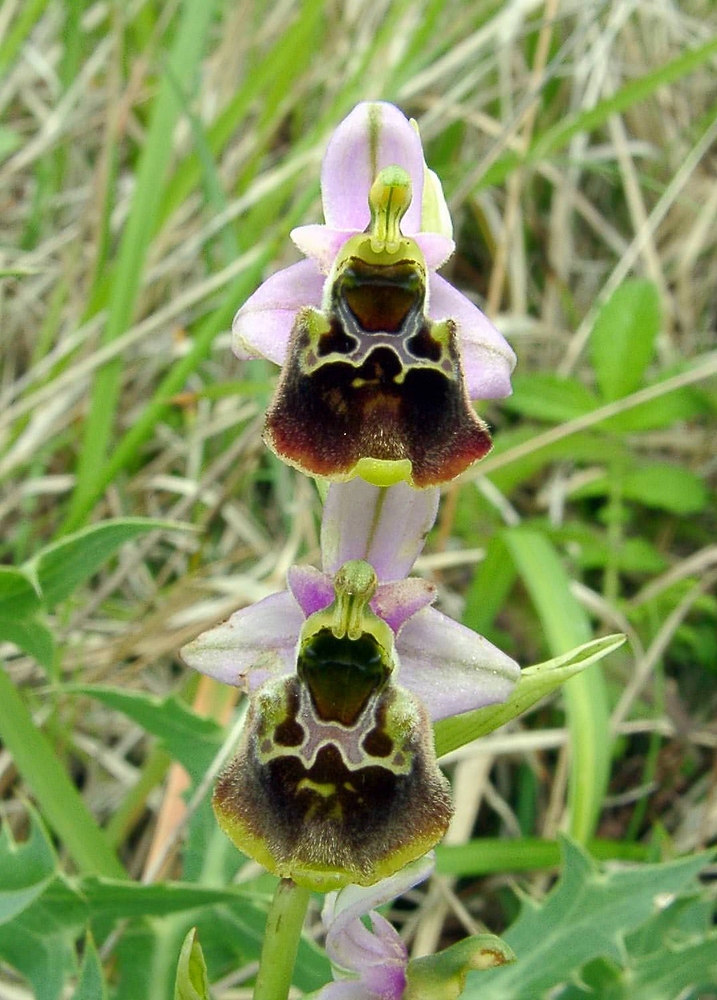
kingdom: Plantae
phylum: Tracheophyta
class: Liliopsida
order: Asparagales
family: Orchidaceae
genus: Ophrys
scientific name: Ophrys holosericea
